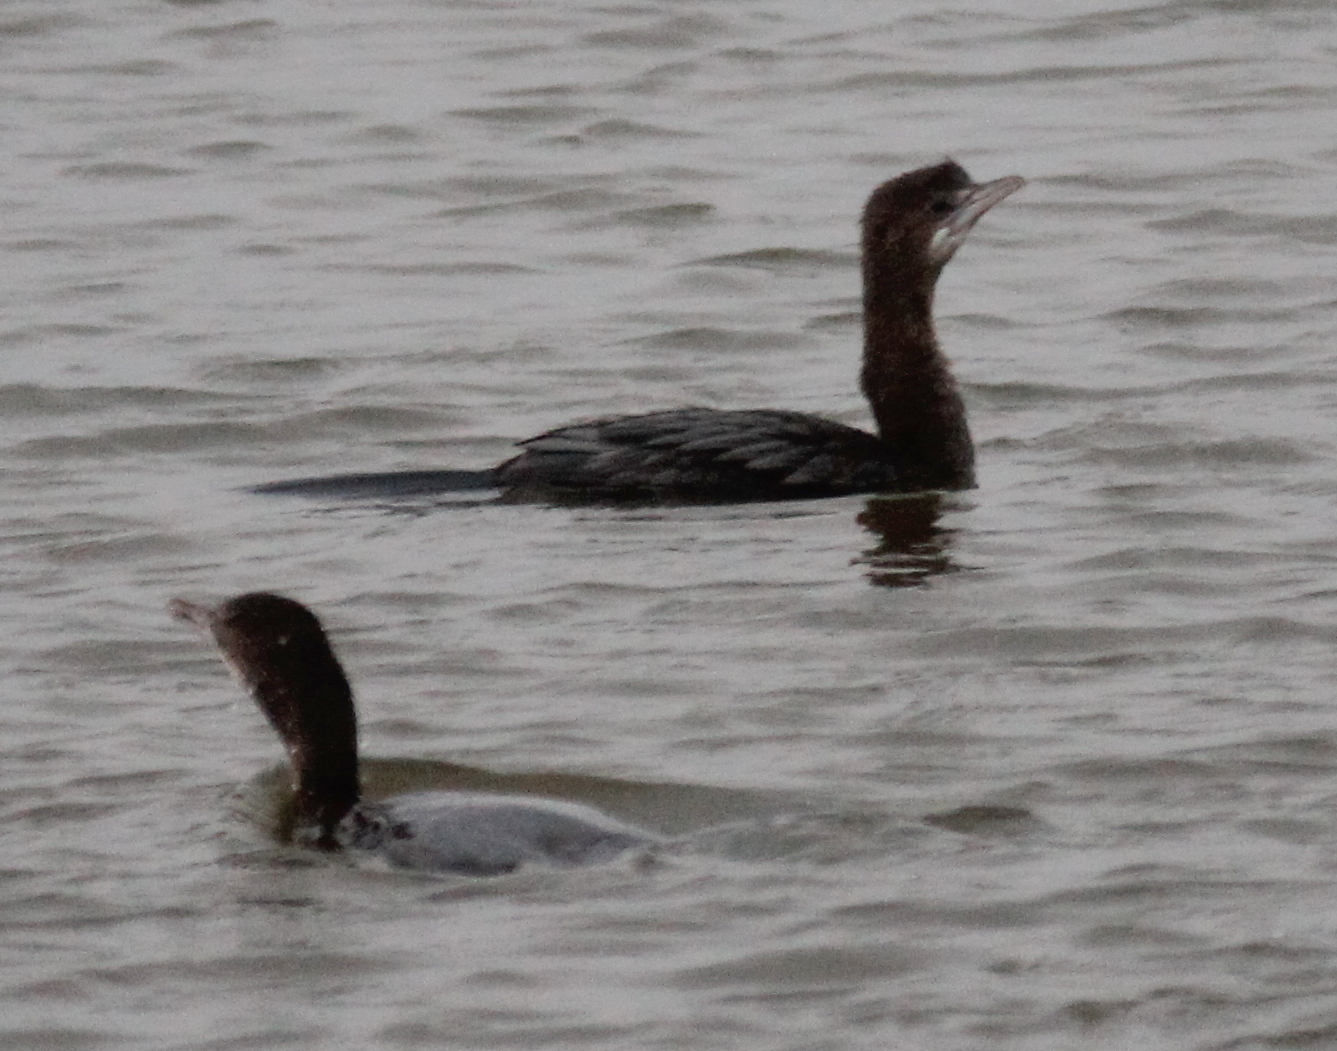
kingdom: Animalia
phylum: Chordata
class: Aves
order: Suliformes
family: Phalacrocoracidae
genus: Microcarbo
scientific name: Microcarbo pygmaeus
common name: Pygmy cormorant
